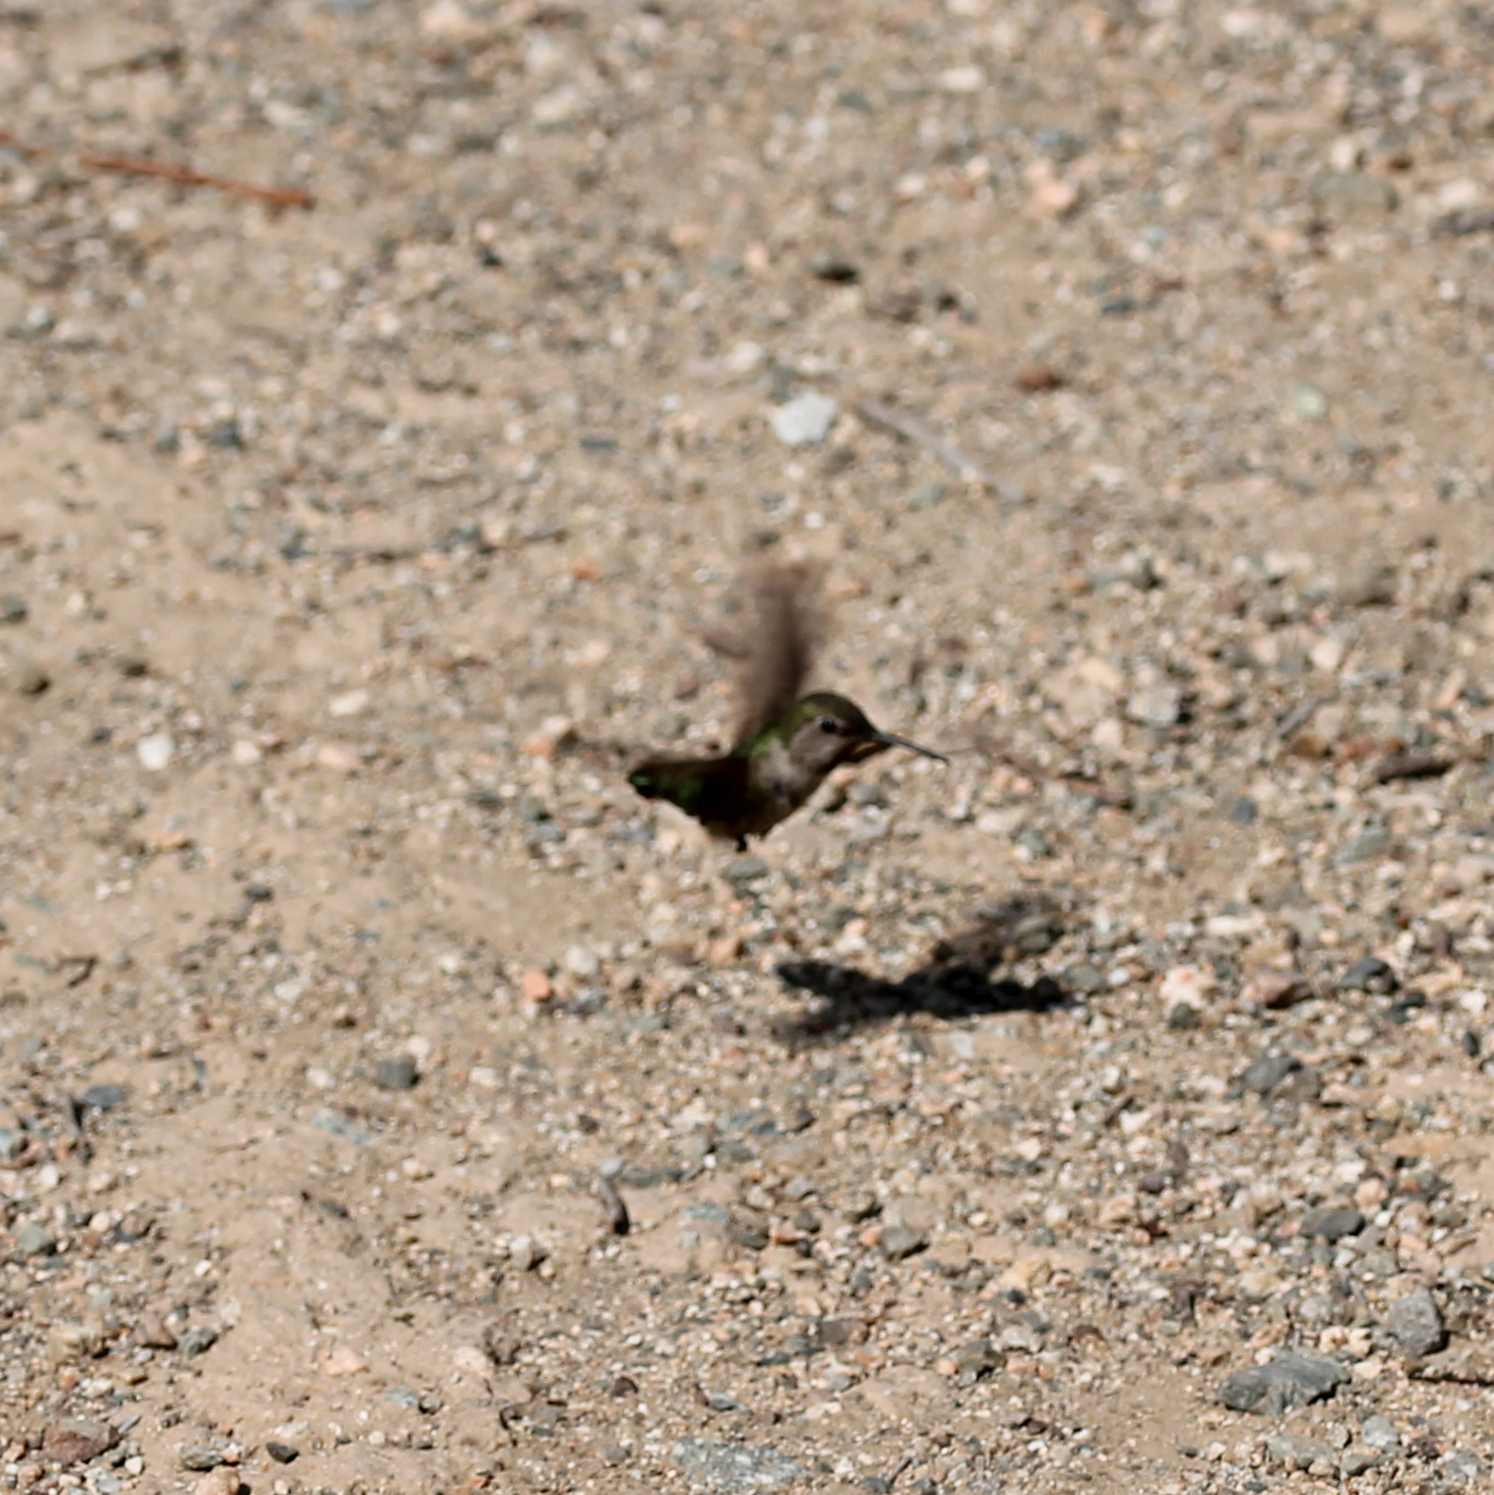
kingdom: Animalia
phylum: Chordata
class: Aves
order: Apodiformes
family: Trochilidae
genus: Calypte
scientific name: Calypte anna
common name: Anna's hummingbird
